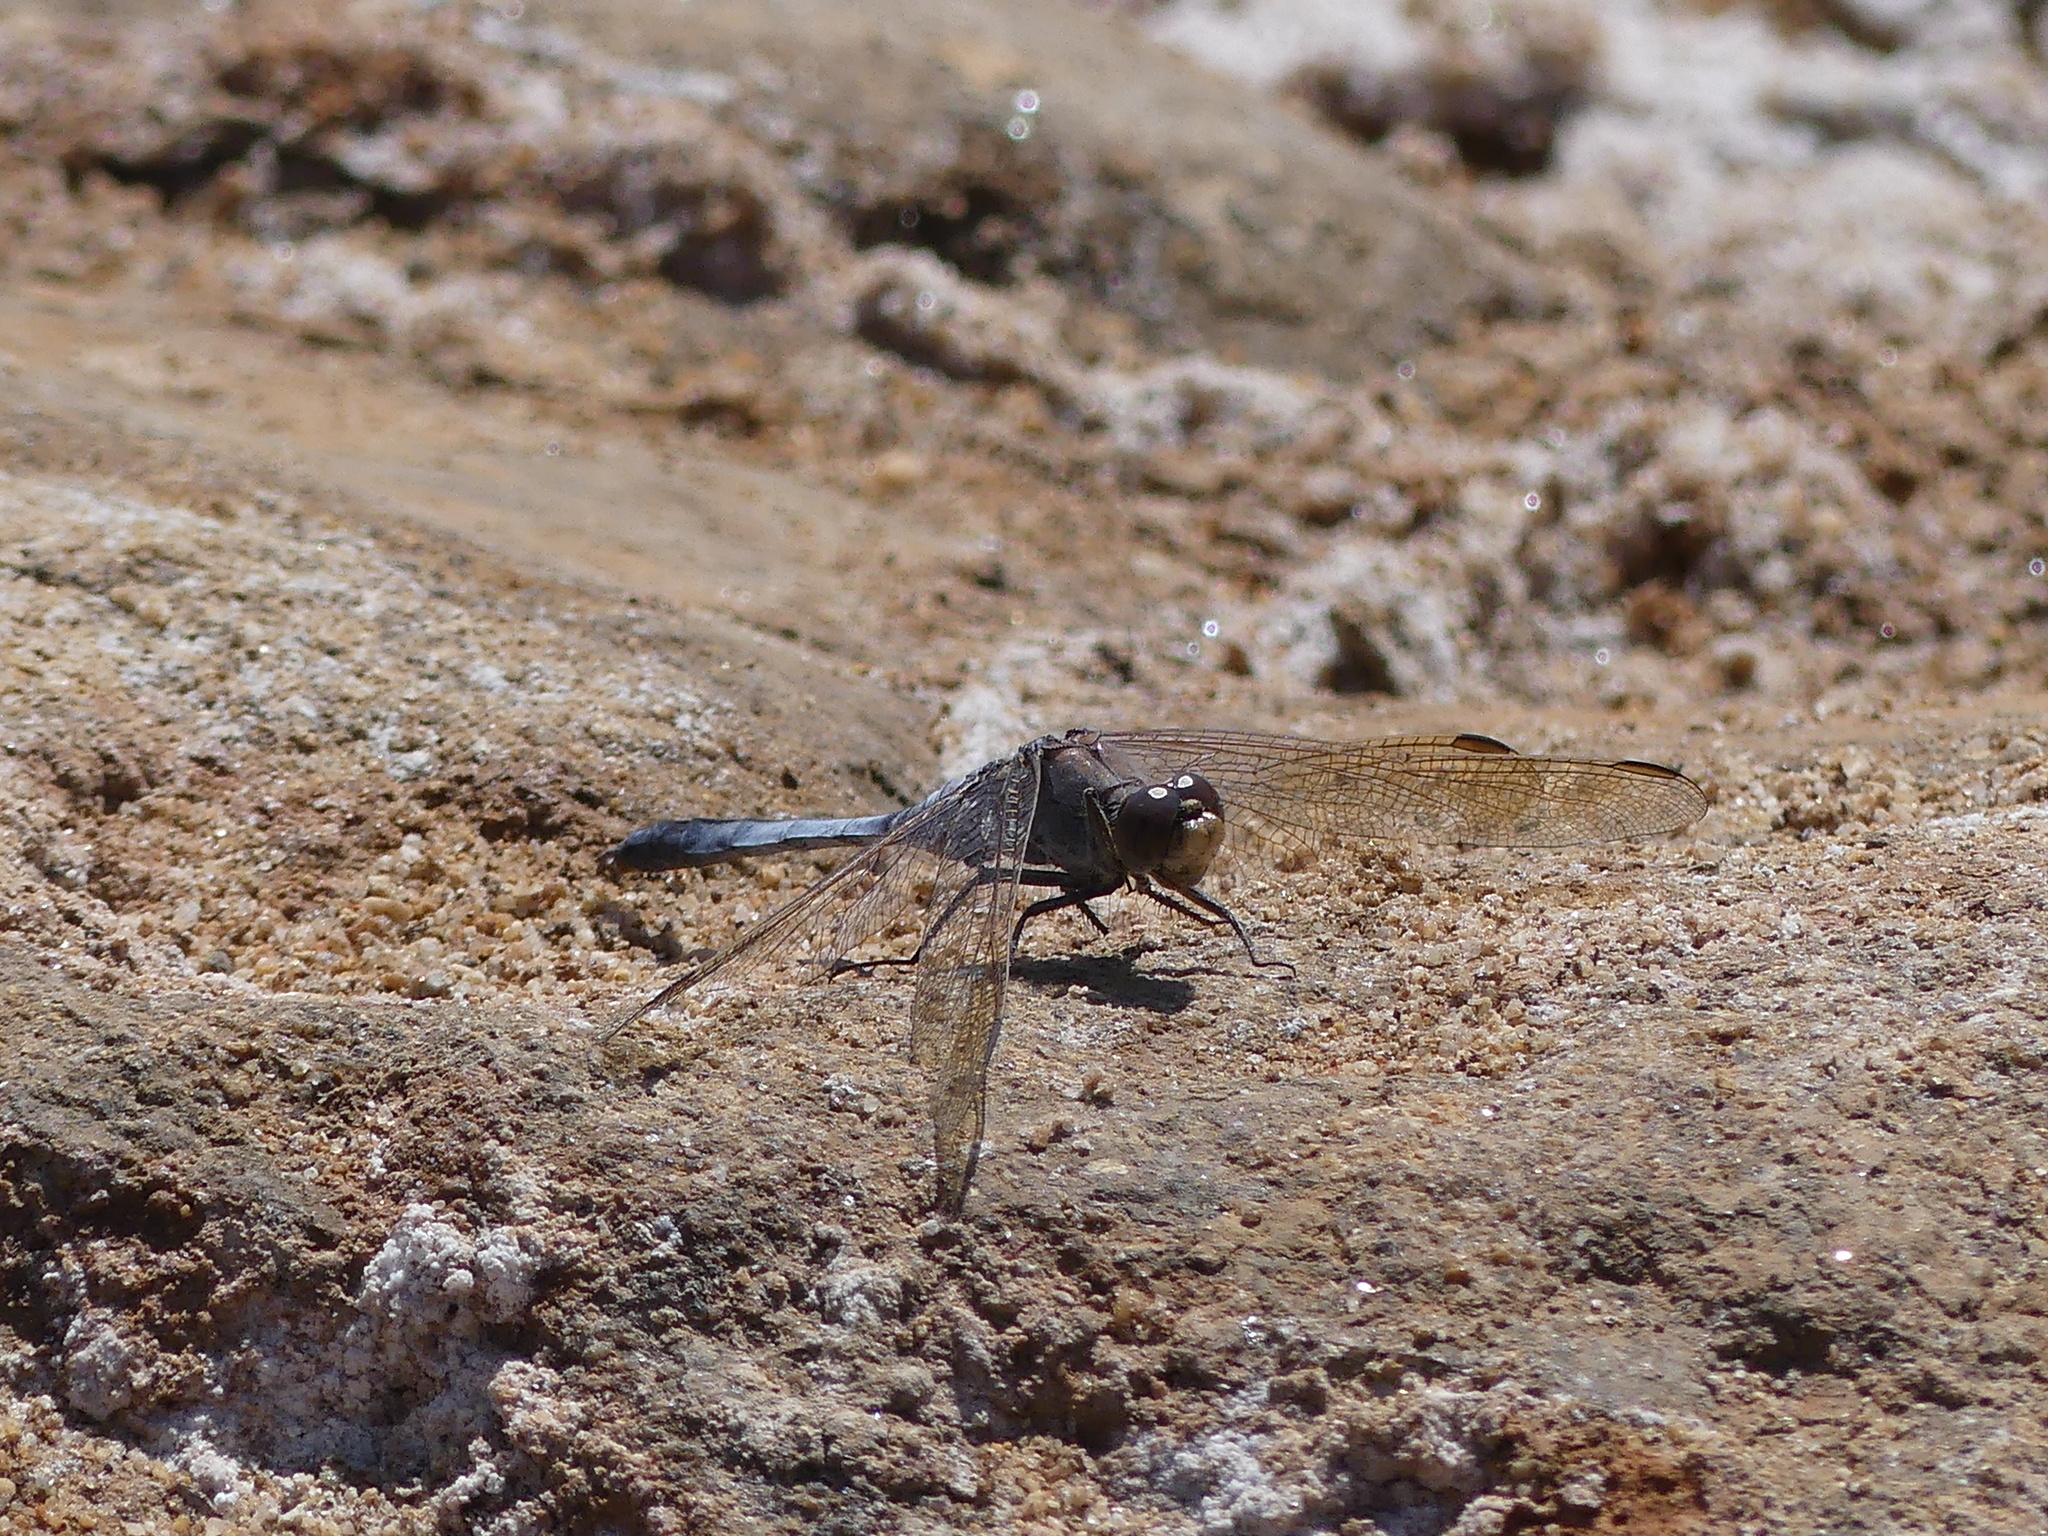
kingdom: Animalia
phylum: Arthropoda
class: Insecta
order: Odonata
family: Libellulidae
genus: Orthetrum
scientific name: Orthetrum caledonicum
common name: Blue skimmer
